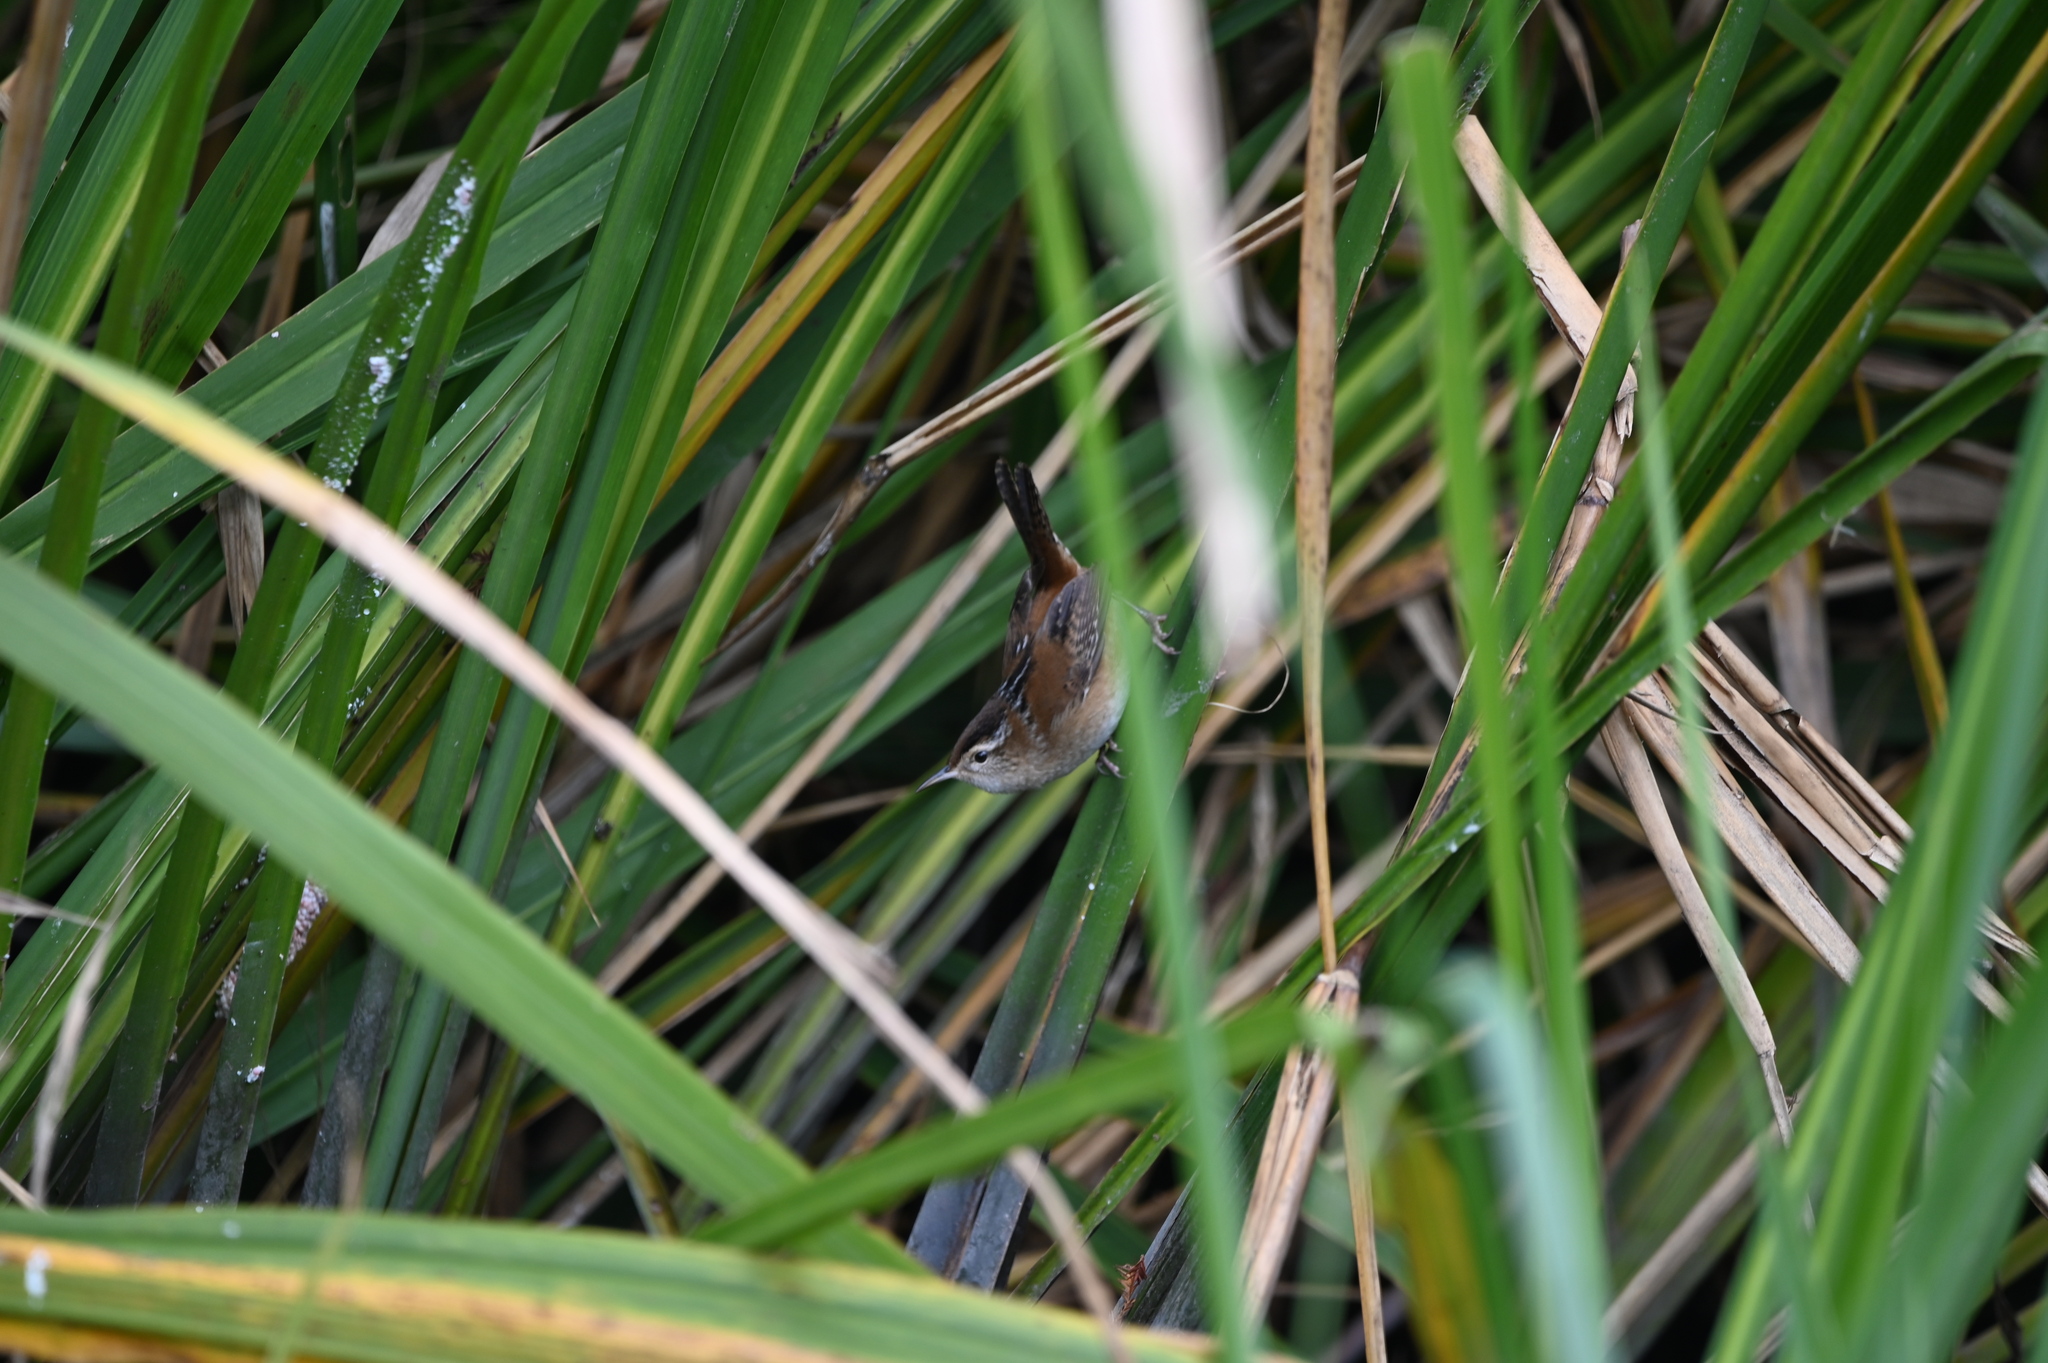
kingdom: Animalia
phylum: Chordata
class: Aves
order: Passeriformes
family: Troglodytidae
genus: Cistothorus
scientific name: Cistothorus palustris
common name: Marsh wren
